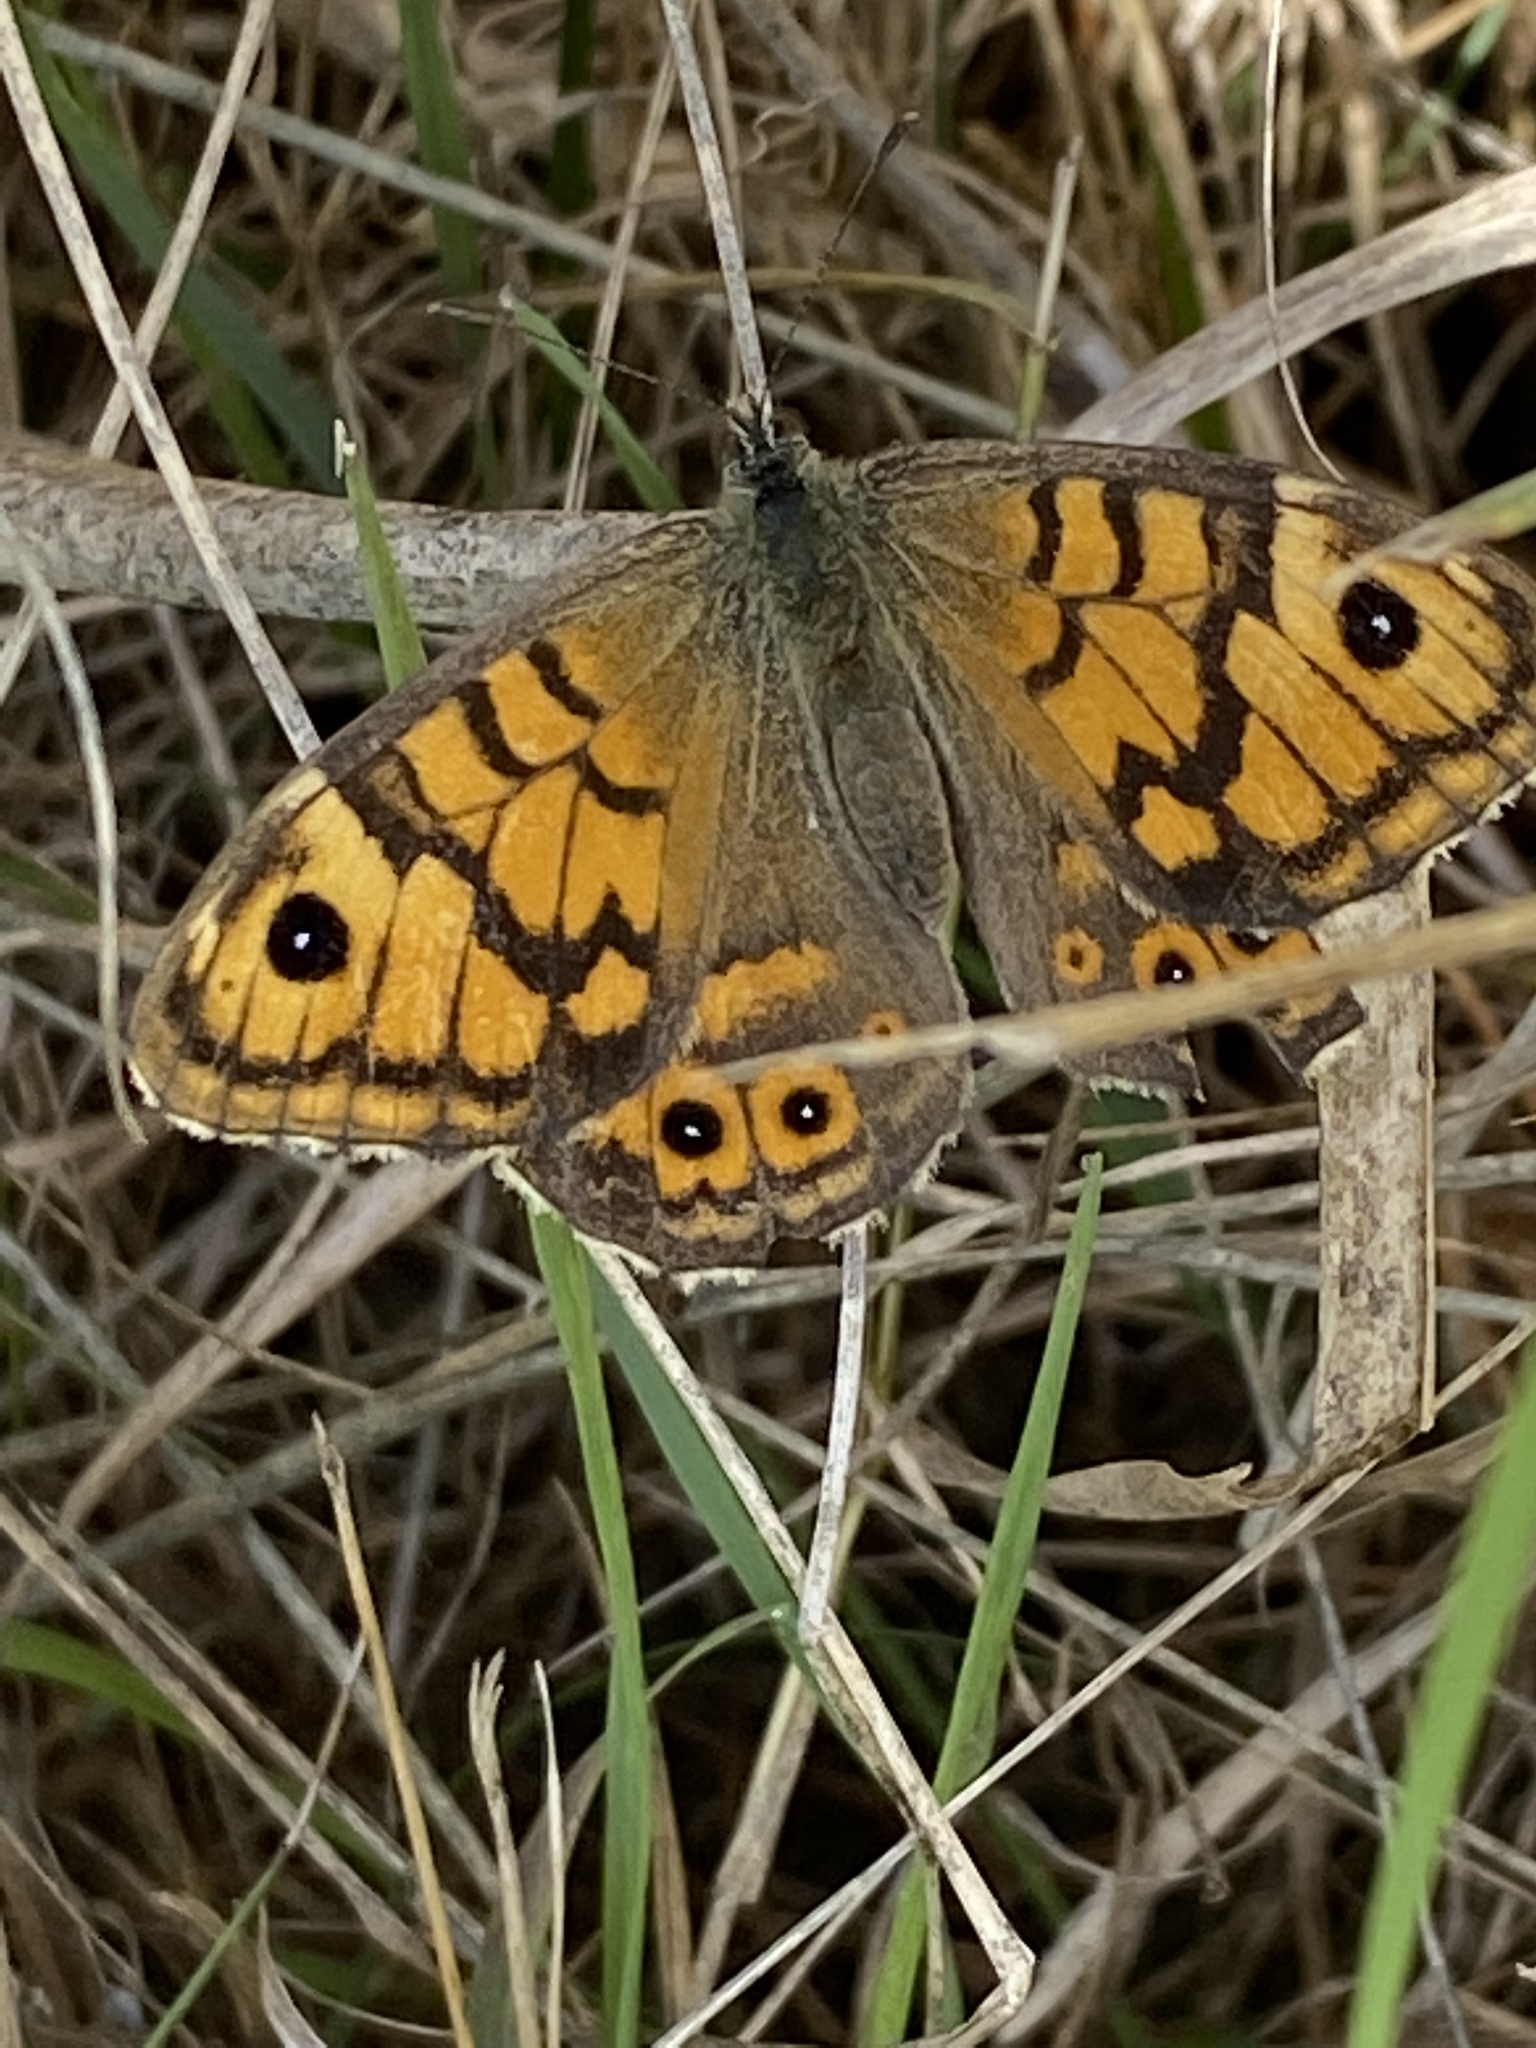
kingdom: Animalia
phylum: Arthropoda
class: Insecta
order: Lepidoptera
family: Nymphalidae
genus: Pararge
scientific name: Pararge Lasiommata megera
